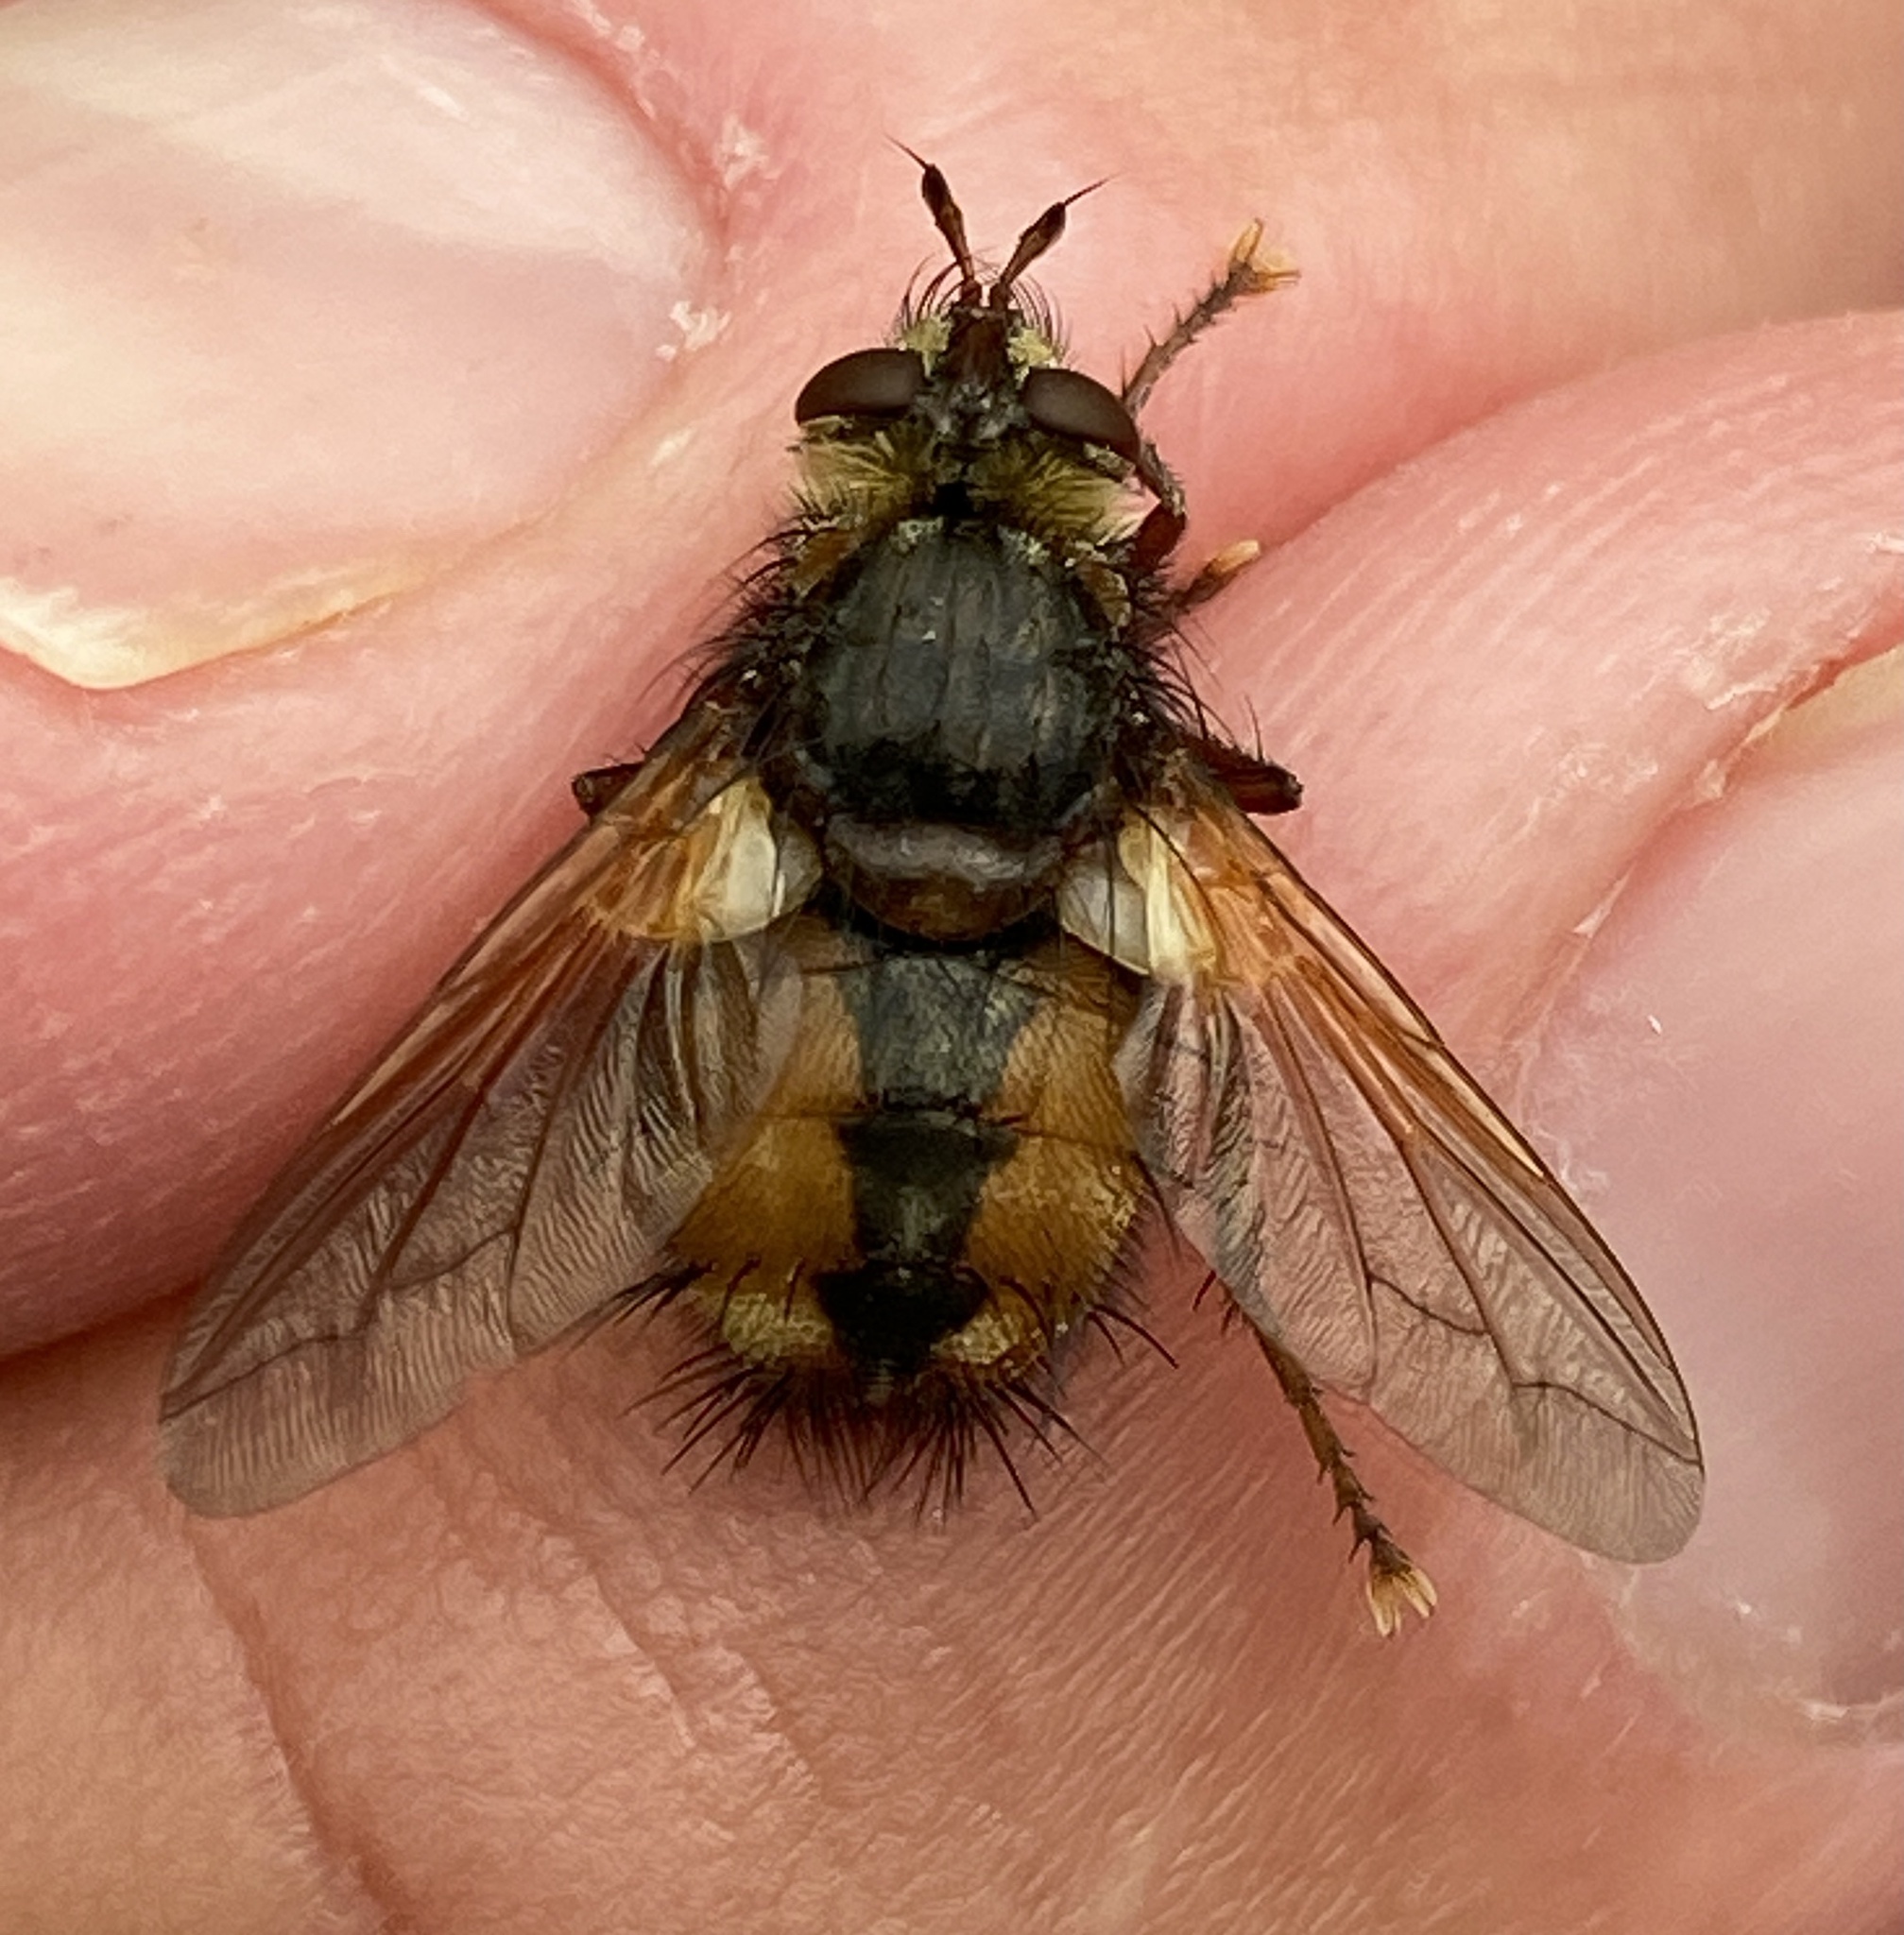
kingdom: Animalia
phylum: Arthropoda
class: Insecta
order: Diptera
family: Tachinidae
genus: Tachina
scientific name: Tachina fera
